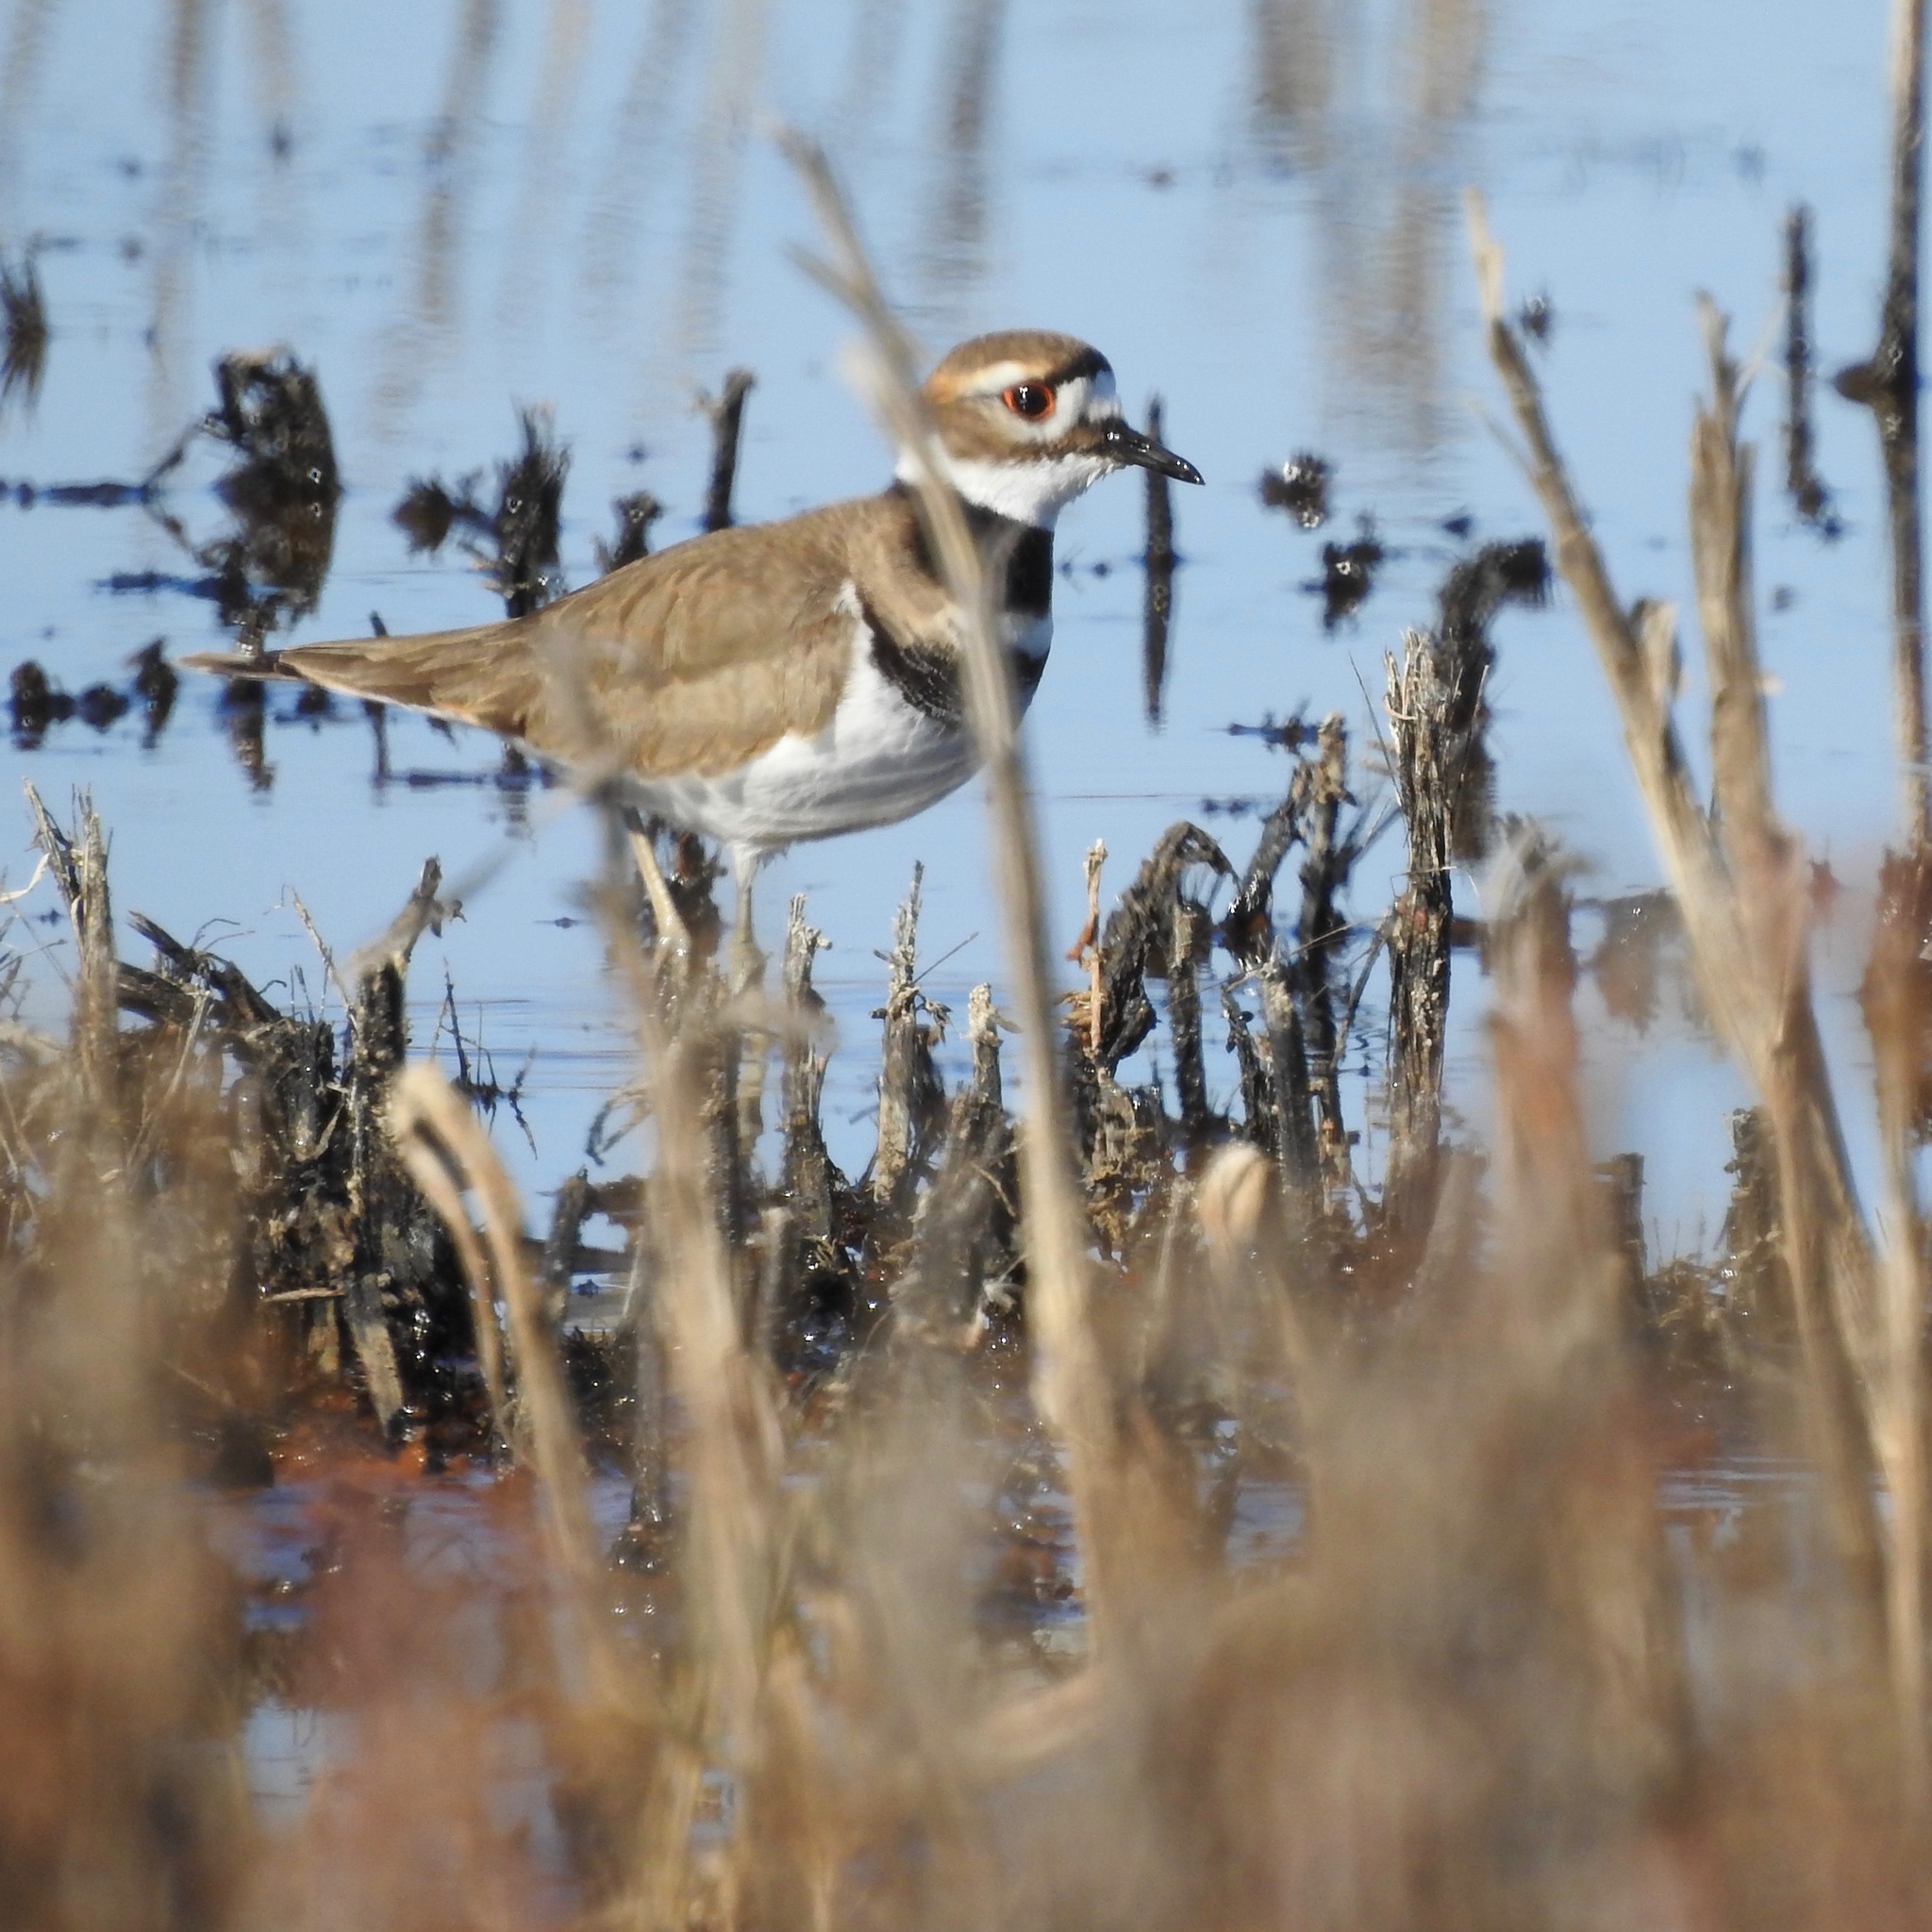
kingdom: Animalia
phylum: Chordata
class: Aves
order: Charadriiformes
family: Charadriidae
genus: Charadrius
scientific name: Charadrius vociferus
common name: Killdeer
